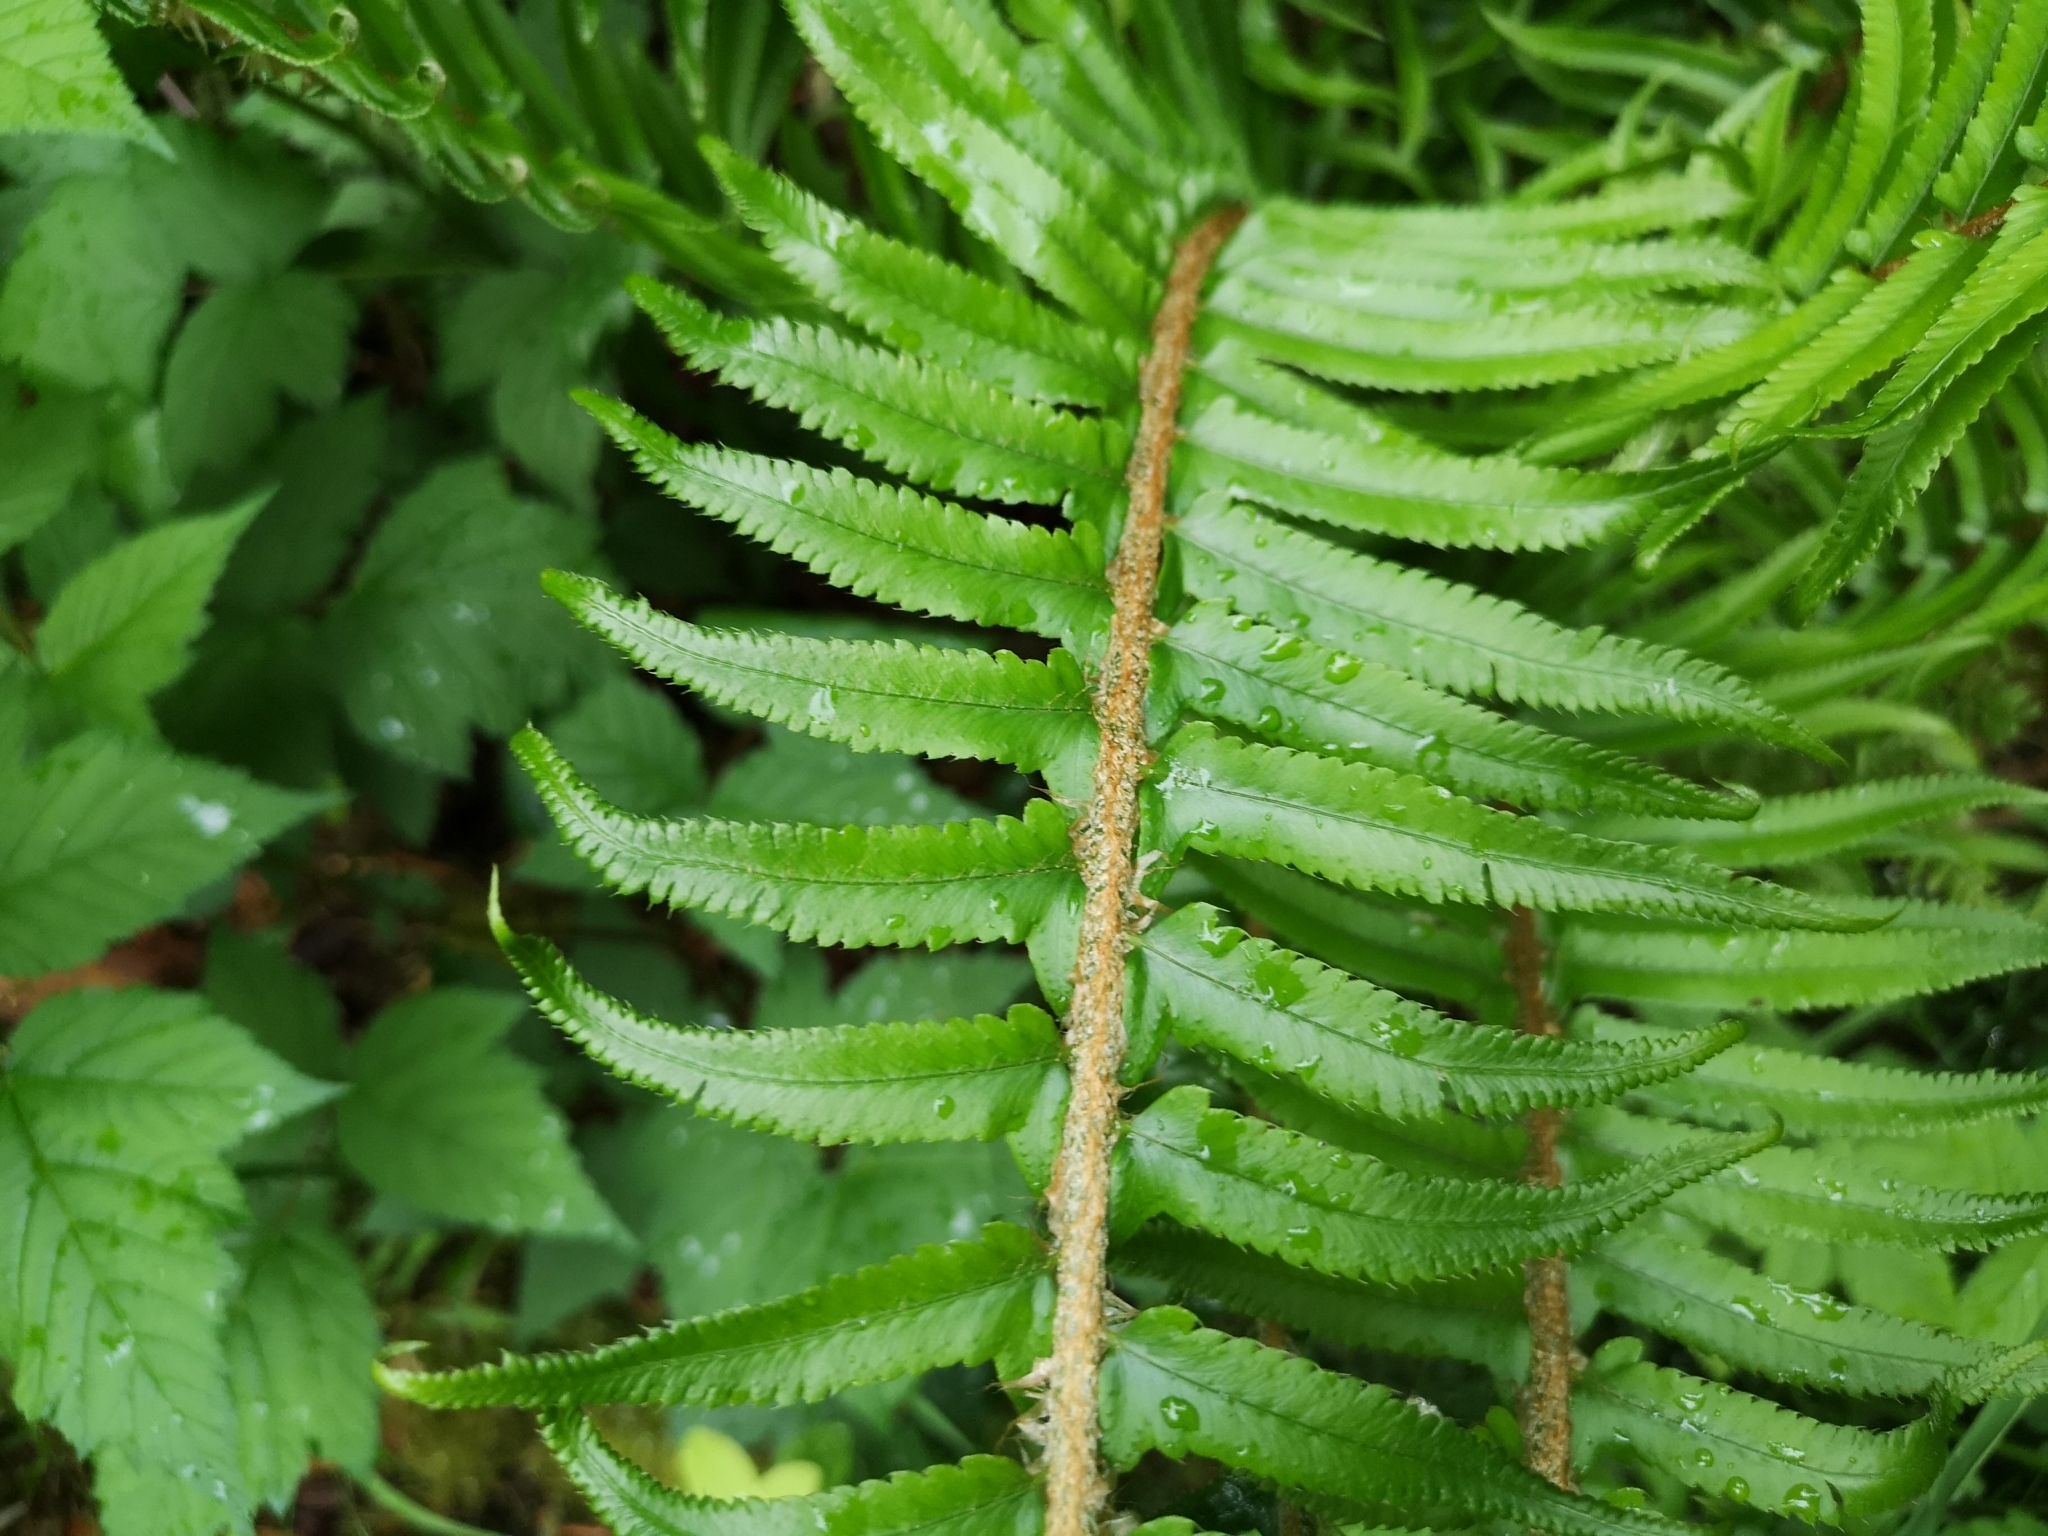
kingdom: Plantae
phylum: Tracheophyta
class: Polypodiopsida
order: Polypodiales
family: Dryopteridaceae
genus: Polystichum
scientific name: Polystichum munitum
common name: Western sword-fern
